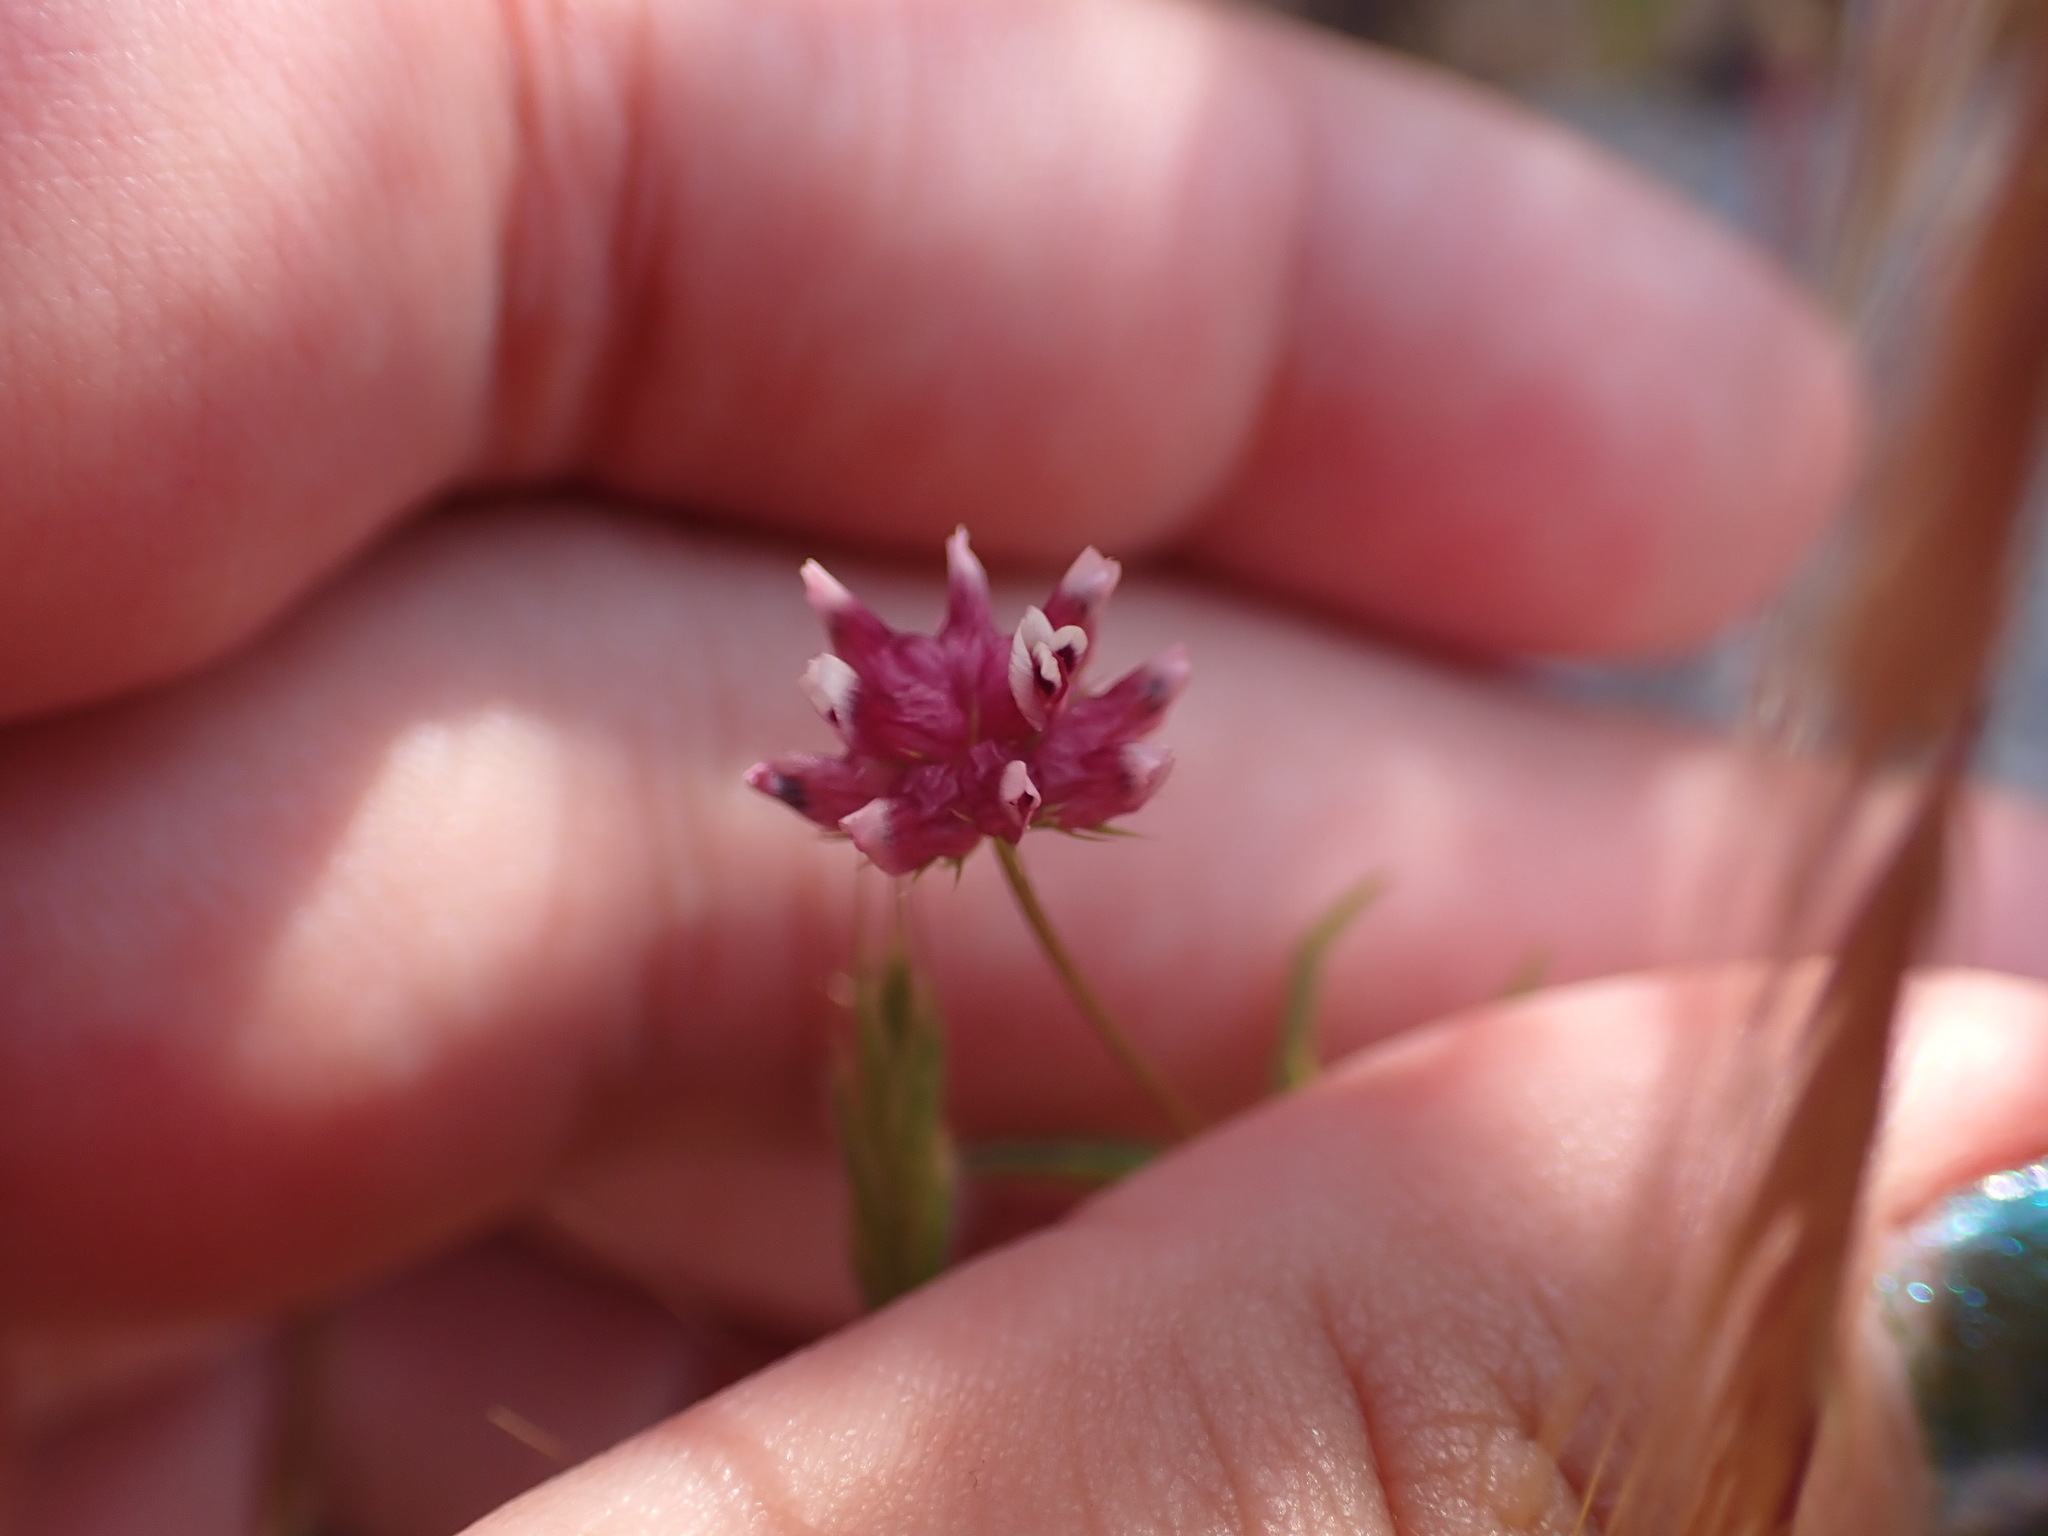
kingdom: Plantae
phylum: Tracheophyta
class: Magnoliopsida
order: Fabales
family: Fabaceae
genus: Trifolium
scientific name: Trifolium depauperatum
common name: Poverty clover
